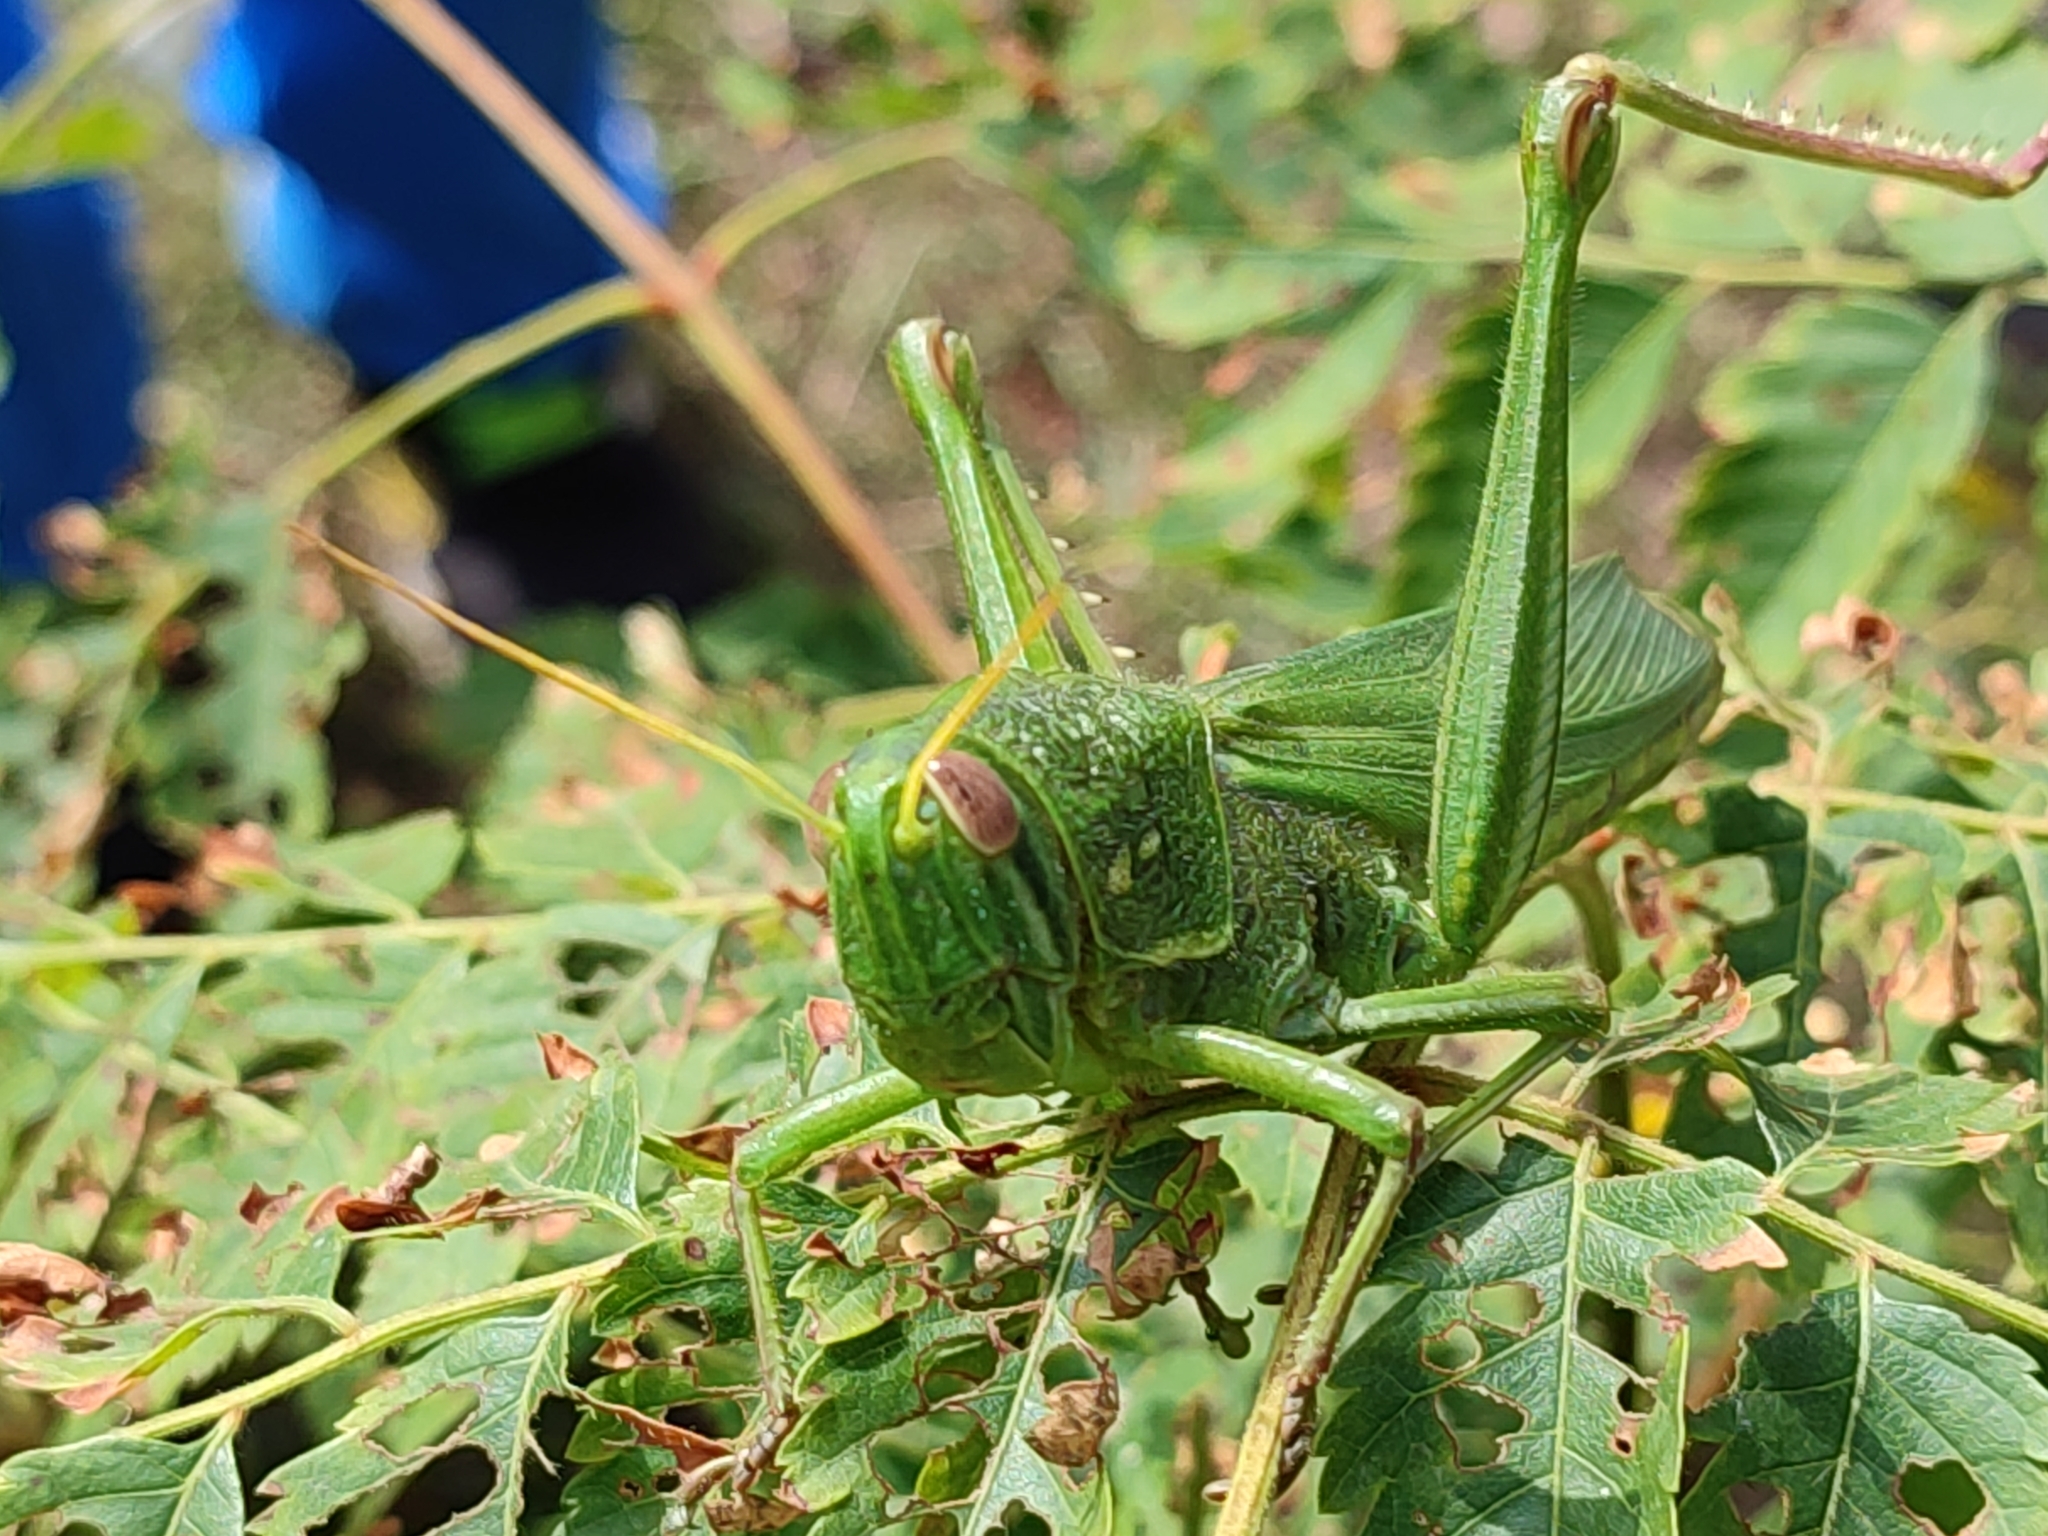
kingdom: Animalia
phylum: Arthropoda
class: Insecta
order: Orthoptera
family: Acrididae
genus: Chondracris
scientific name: Chondracris rosea
